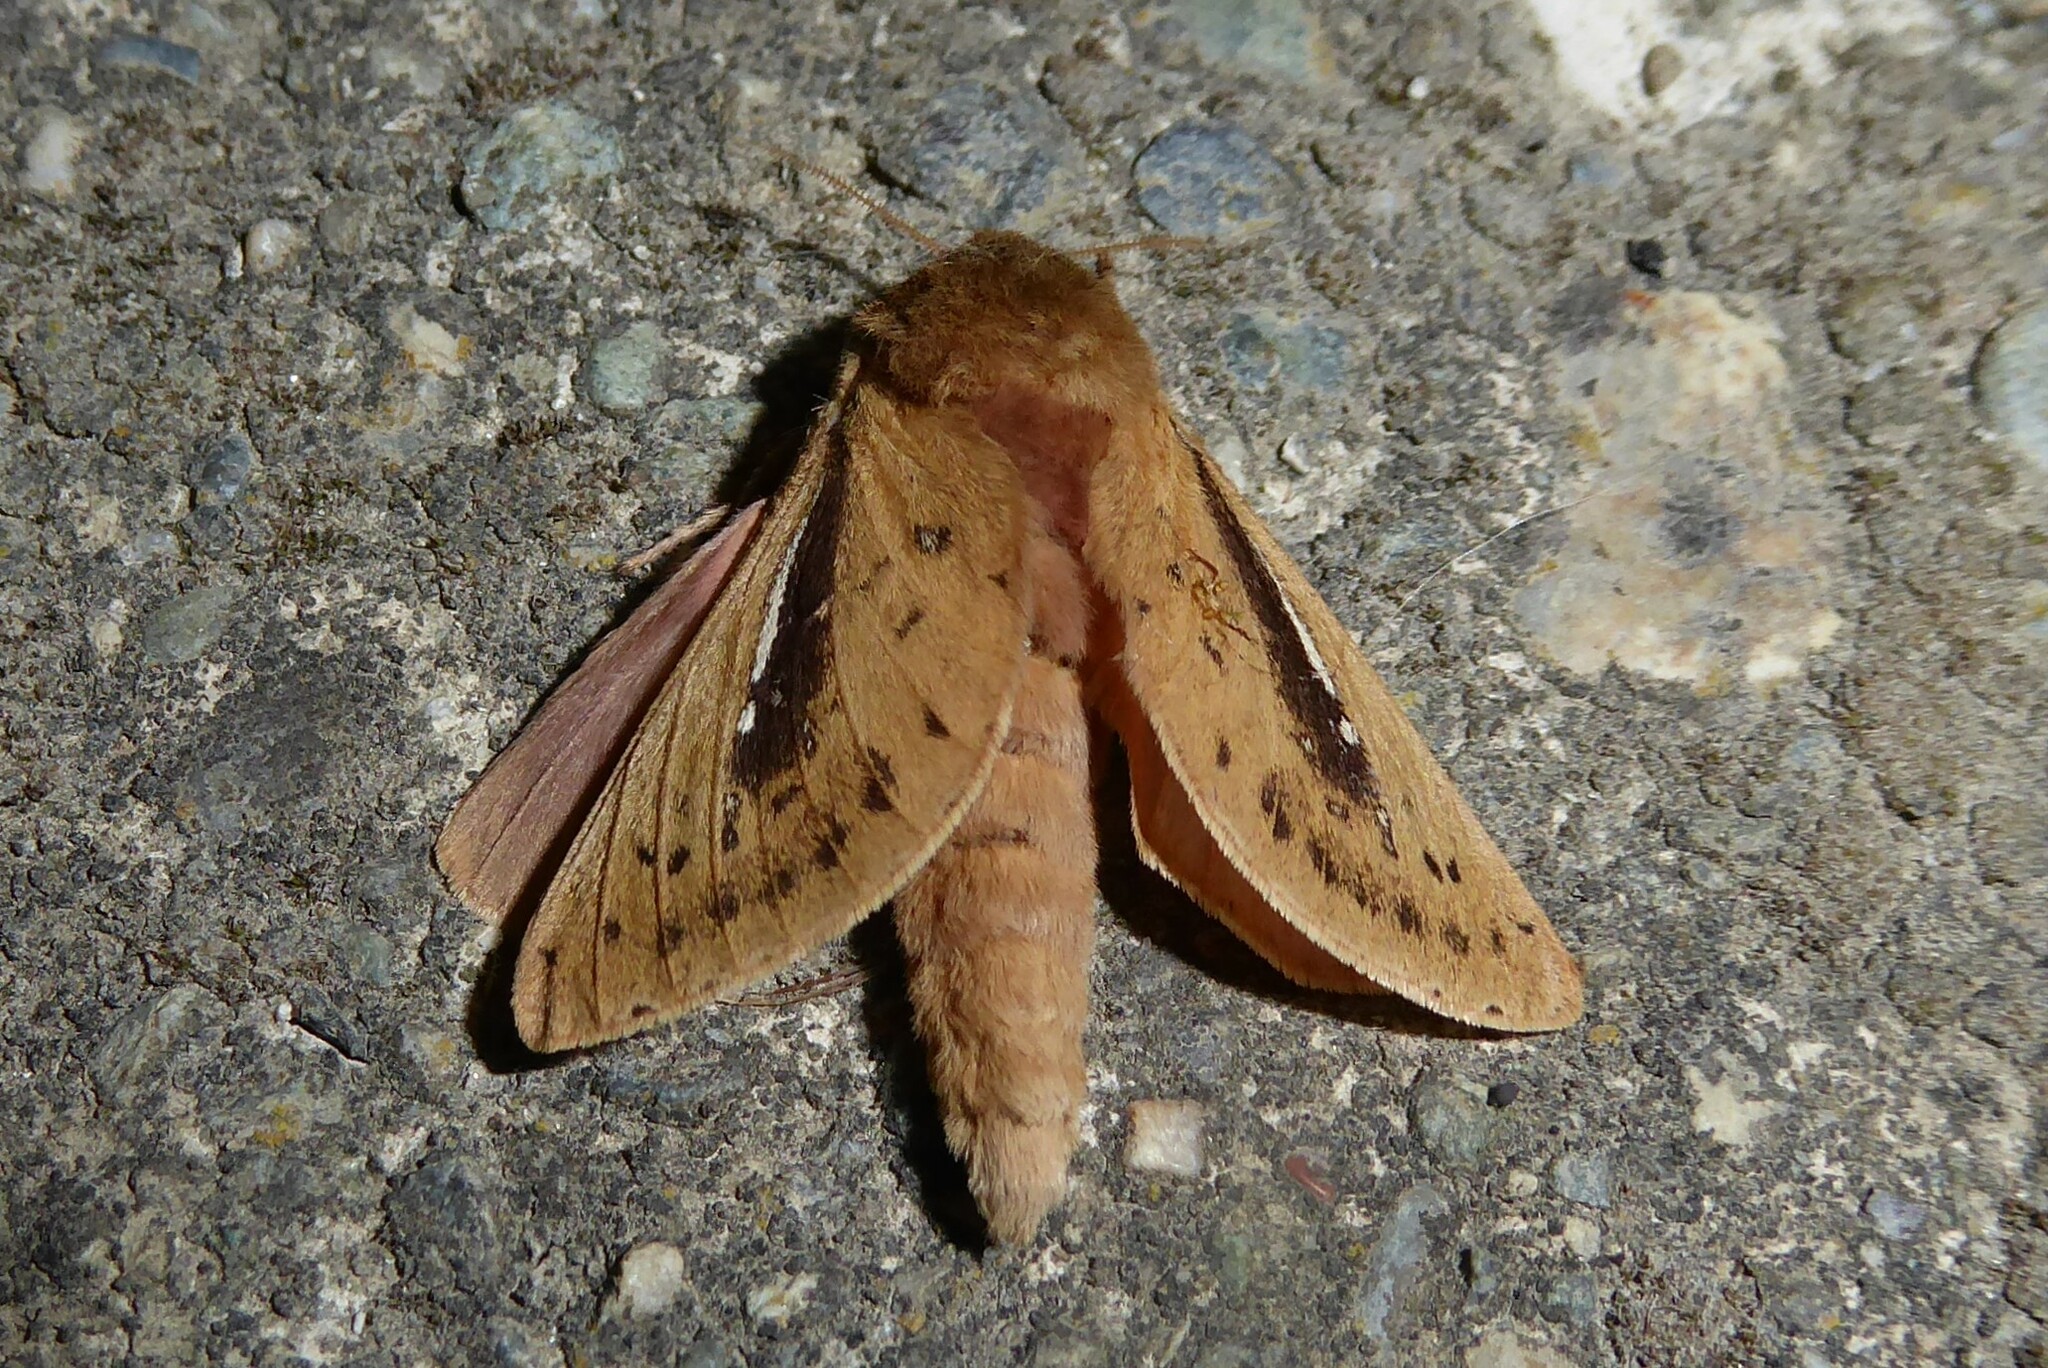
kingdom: Animalia
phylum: Arthropoda
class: Insecta
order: Lepidoptera
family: Hepialidae
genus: Wiseana
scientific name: Wiseana umbraculatus
